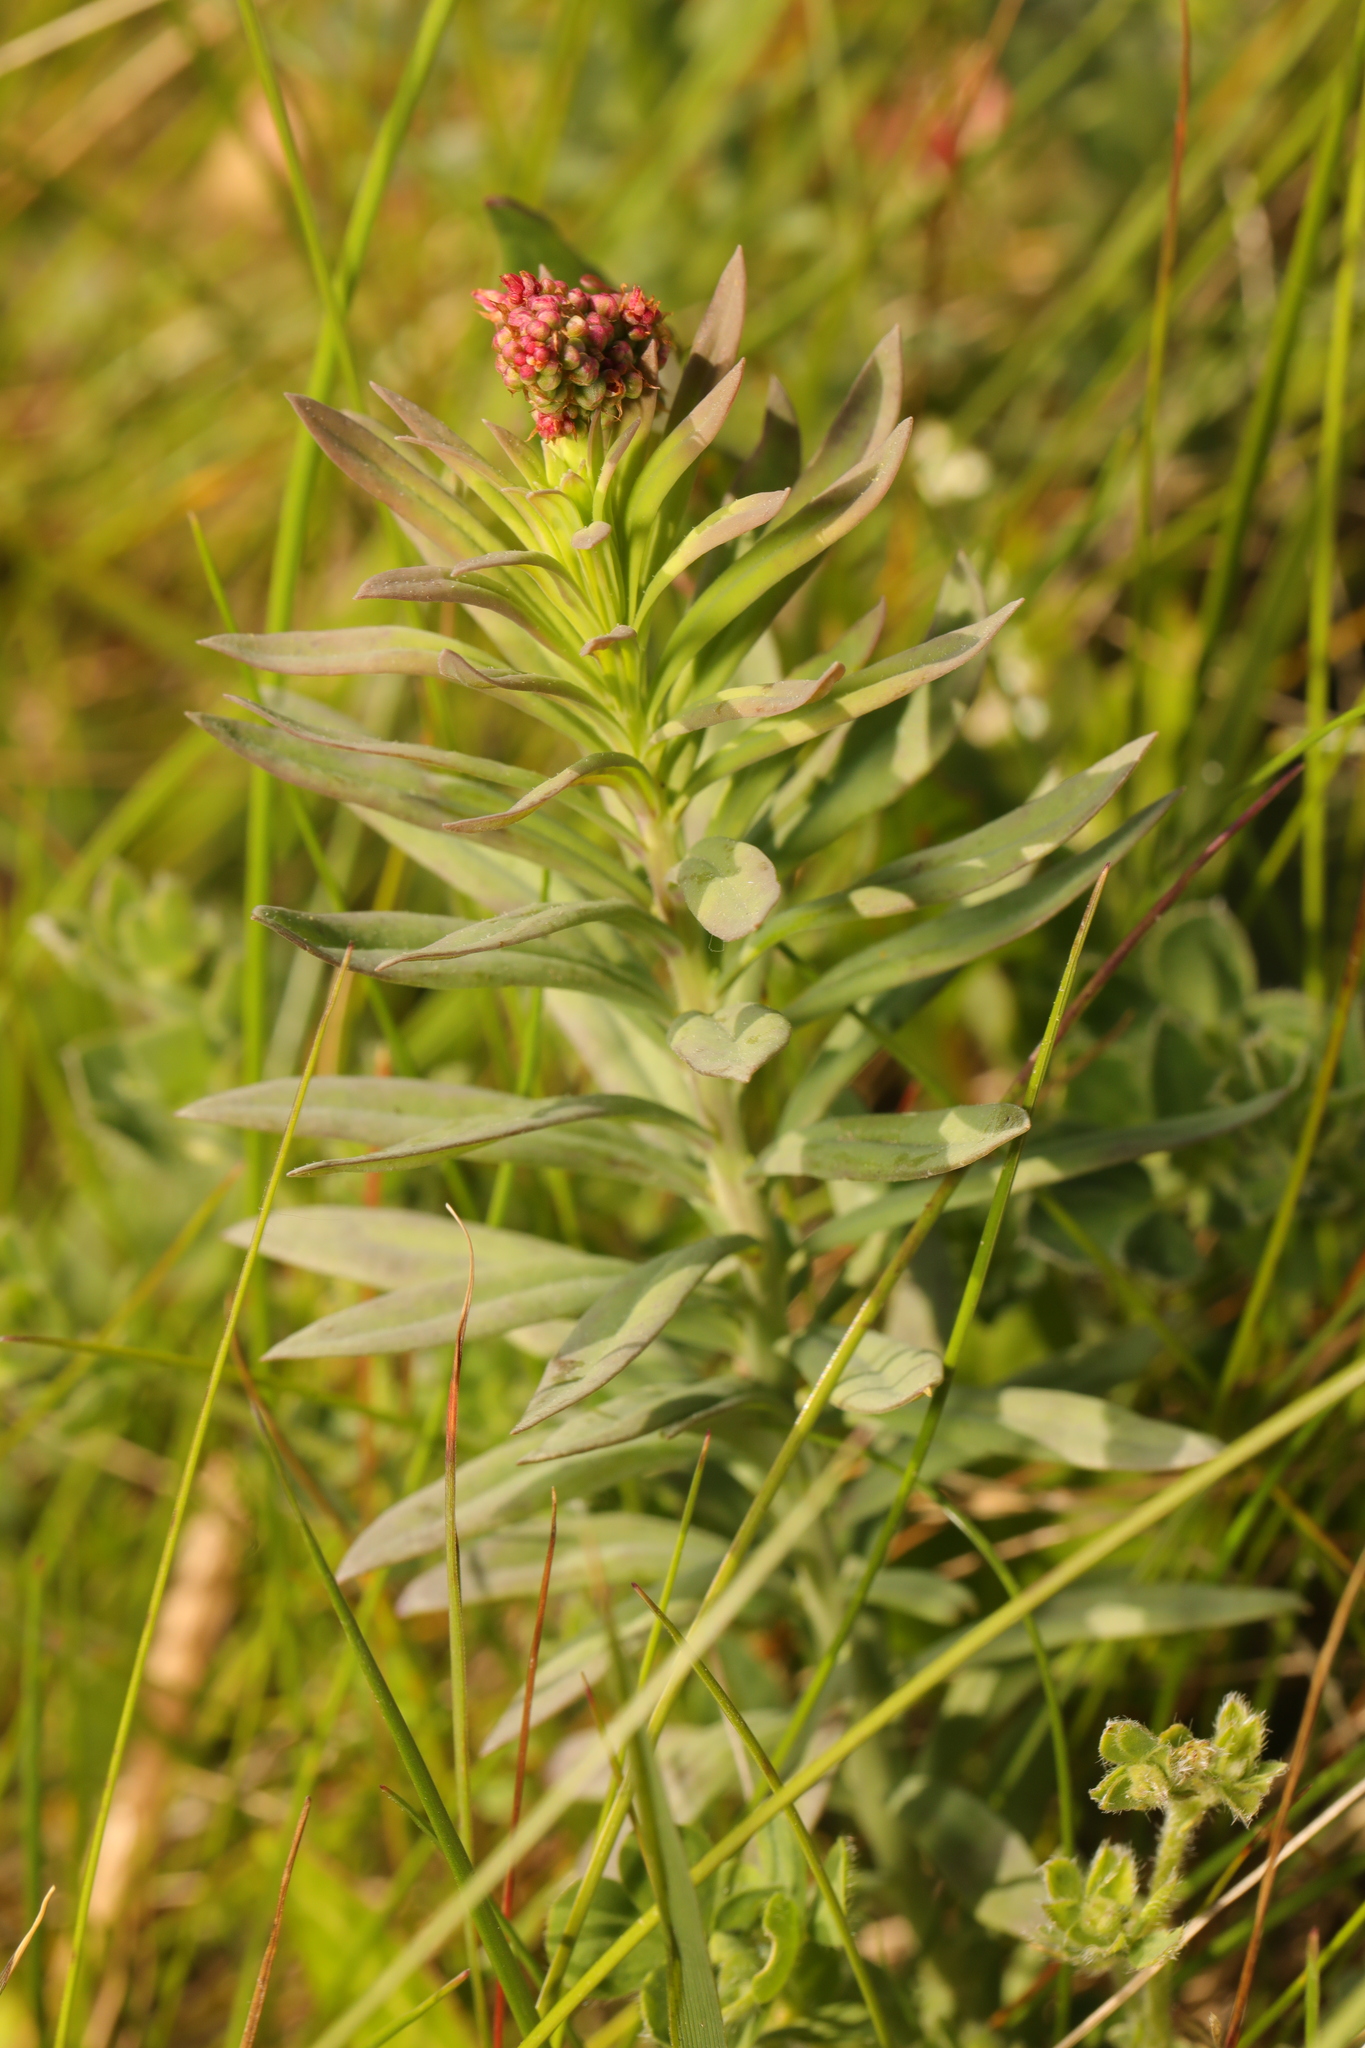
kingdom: Plantae
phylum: Tracheophyta
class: Magnoliopsida
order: Saxifragales
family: Crassulaceae
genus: Rhodiola
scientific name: Rhodiola rosea
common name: Roseroot
